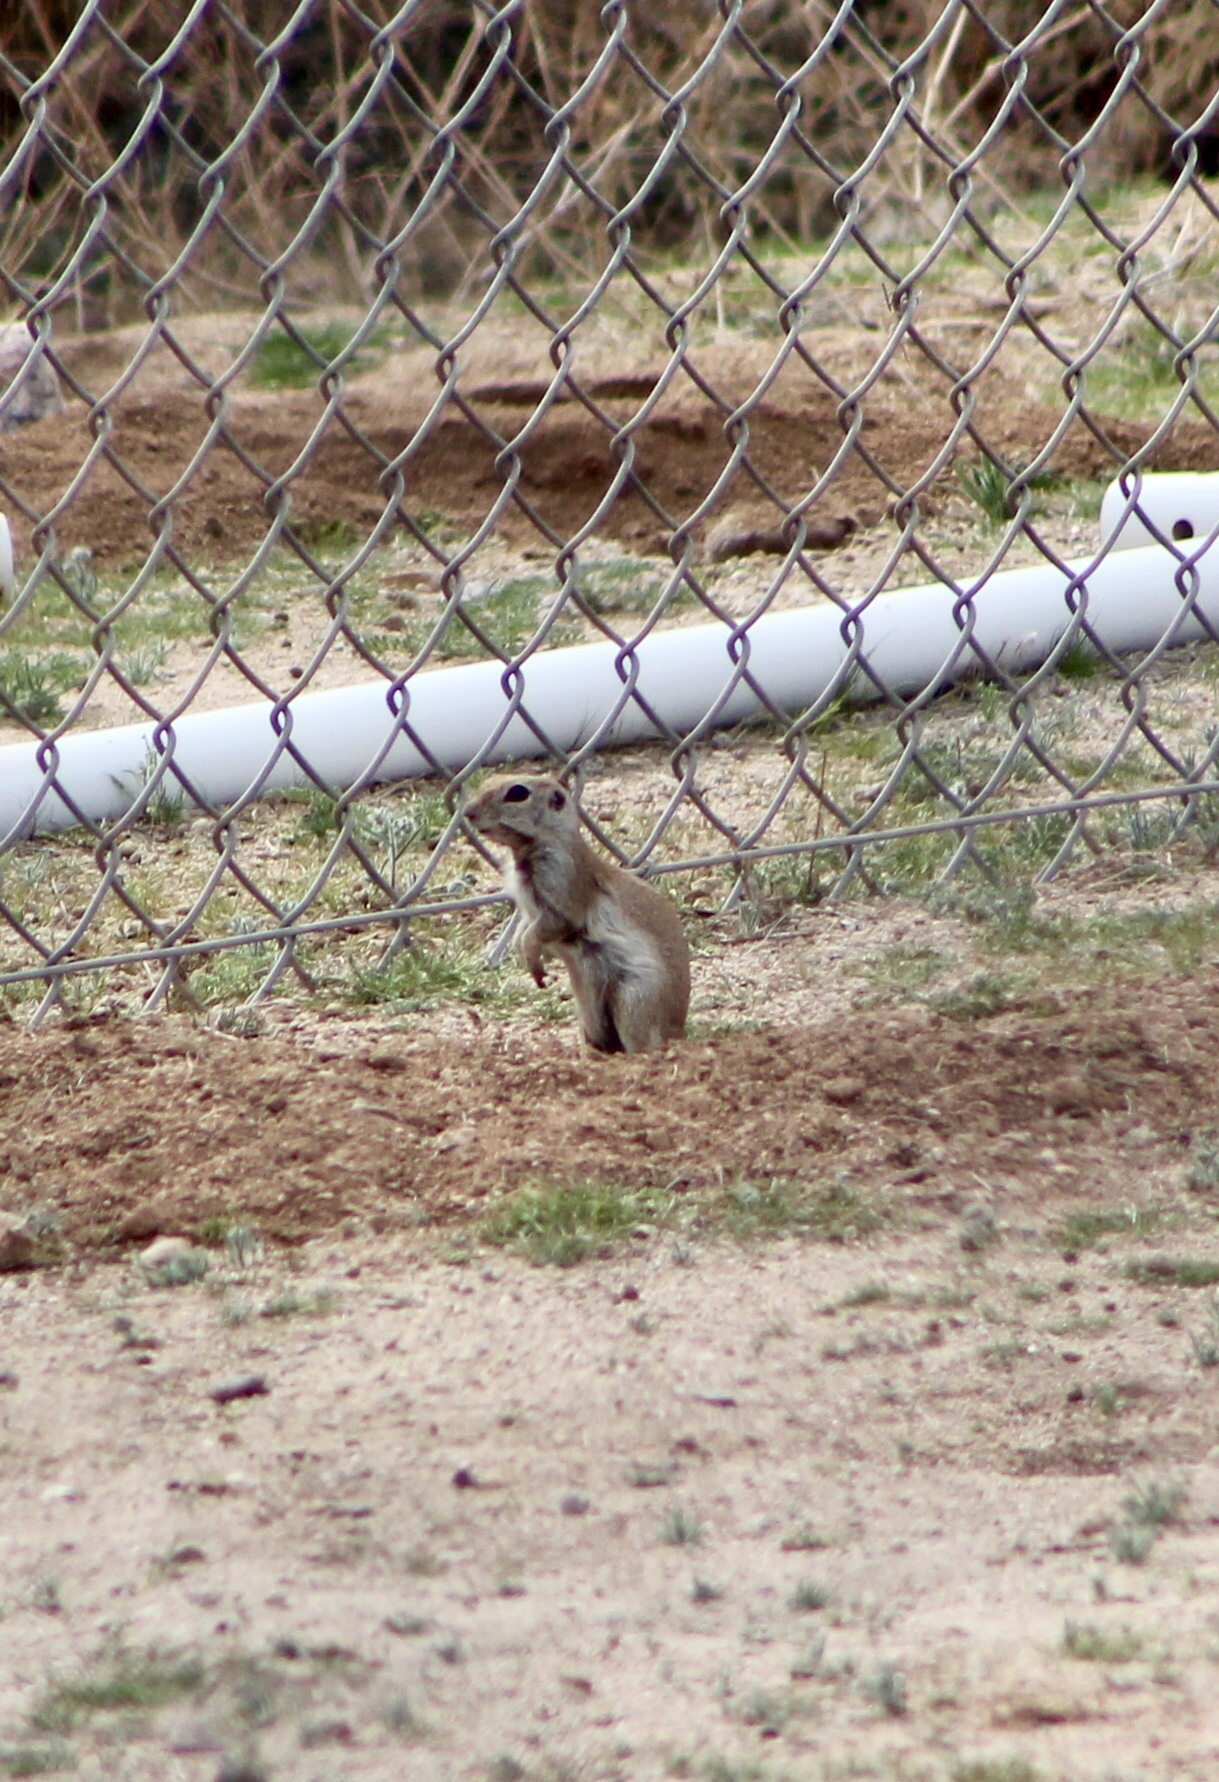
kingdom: Animalia
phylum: Chordata
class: Mammalia
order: Rodentia
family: Sciuridae
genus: Xerospermophilus
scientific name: Xerospermophilus tereticaudus
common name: Round-tailed ground squirrel
